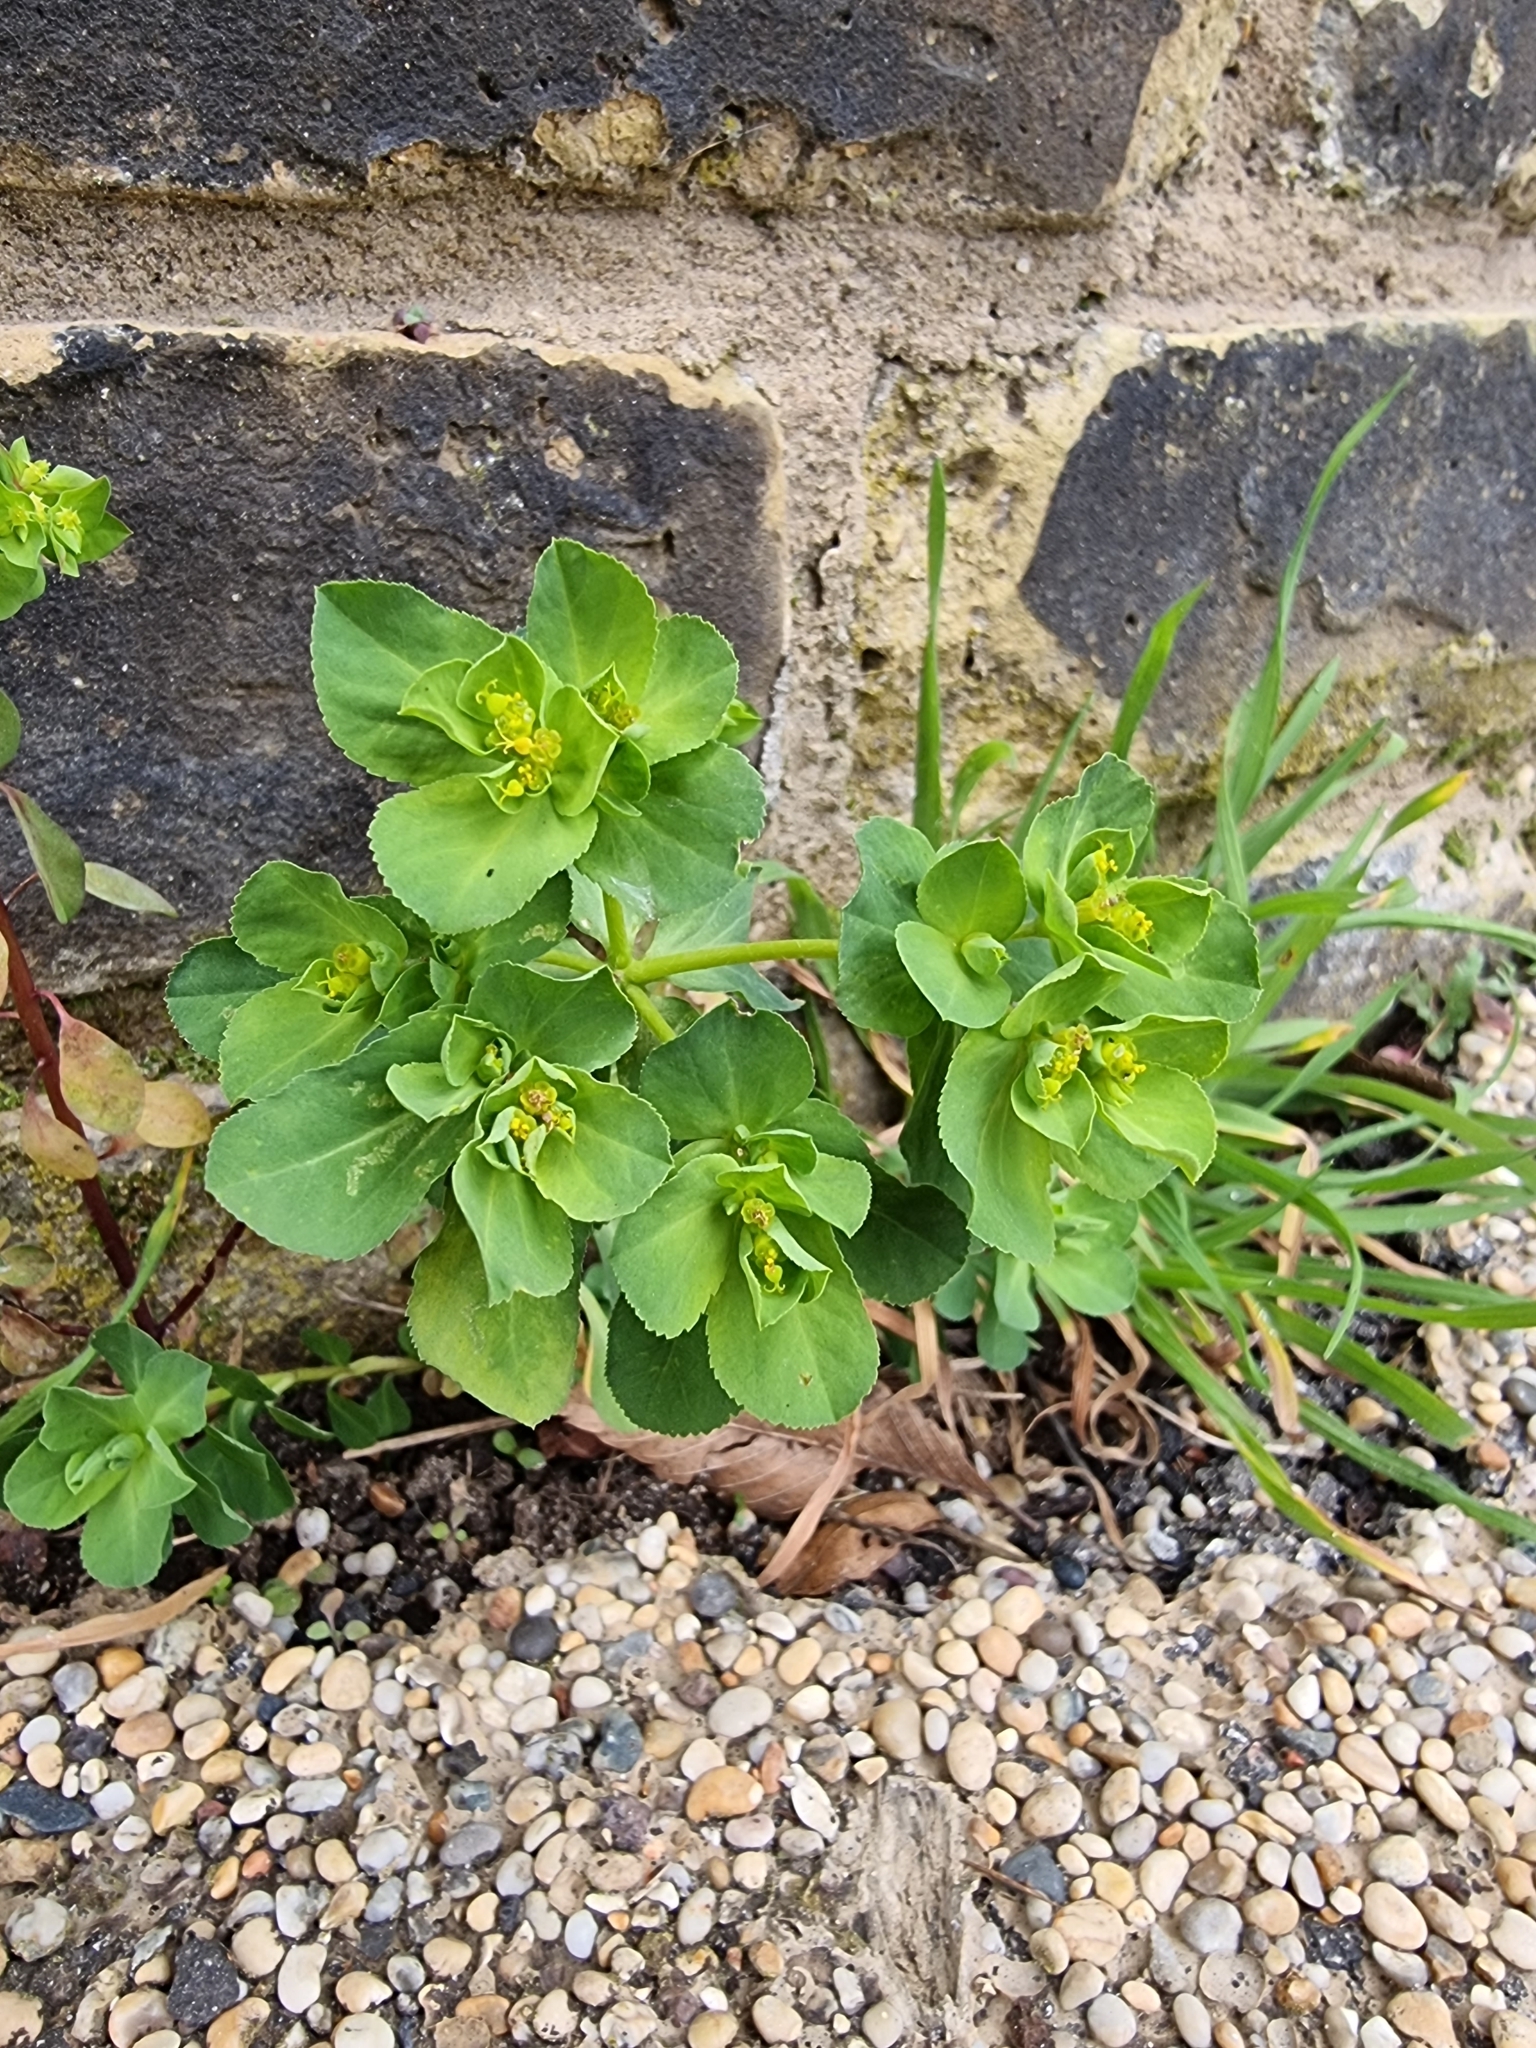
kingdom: Plantae
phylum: Tracheophyta
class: Magnoliopsida
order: Malpighiales
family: Euphorbiaceae
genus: Euphorbia
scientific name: Euphorbia helioscopia
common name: Sun spurge
